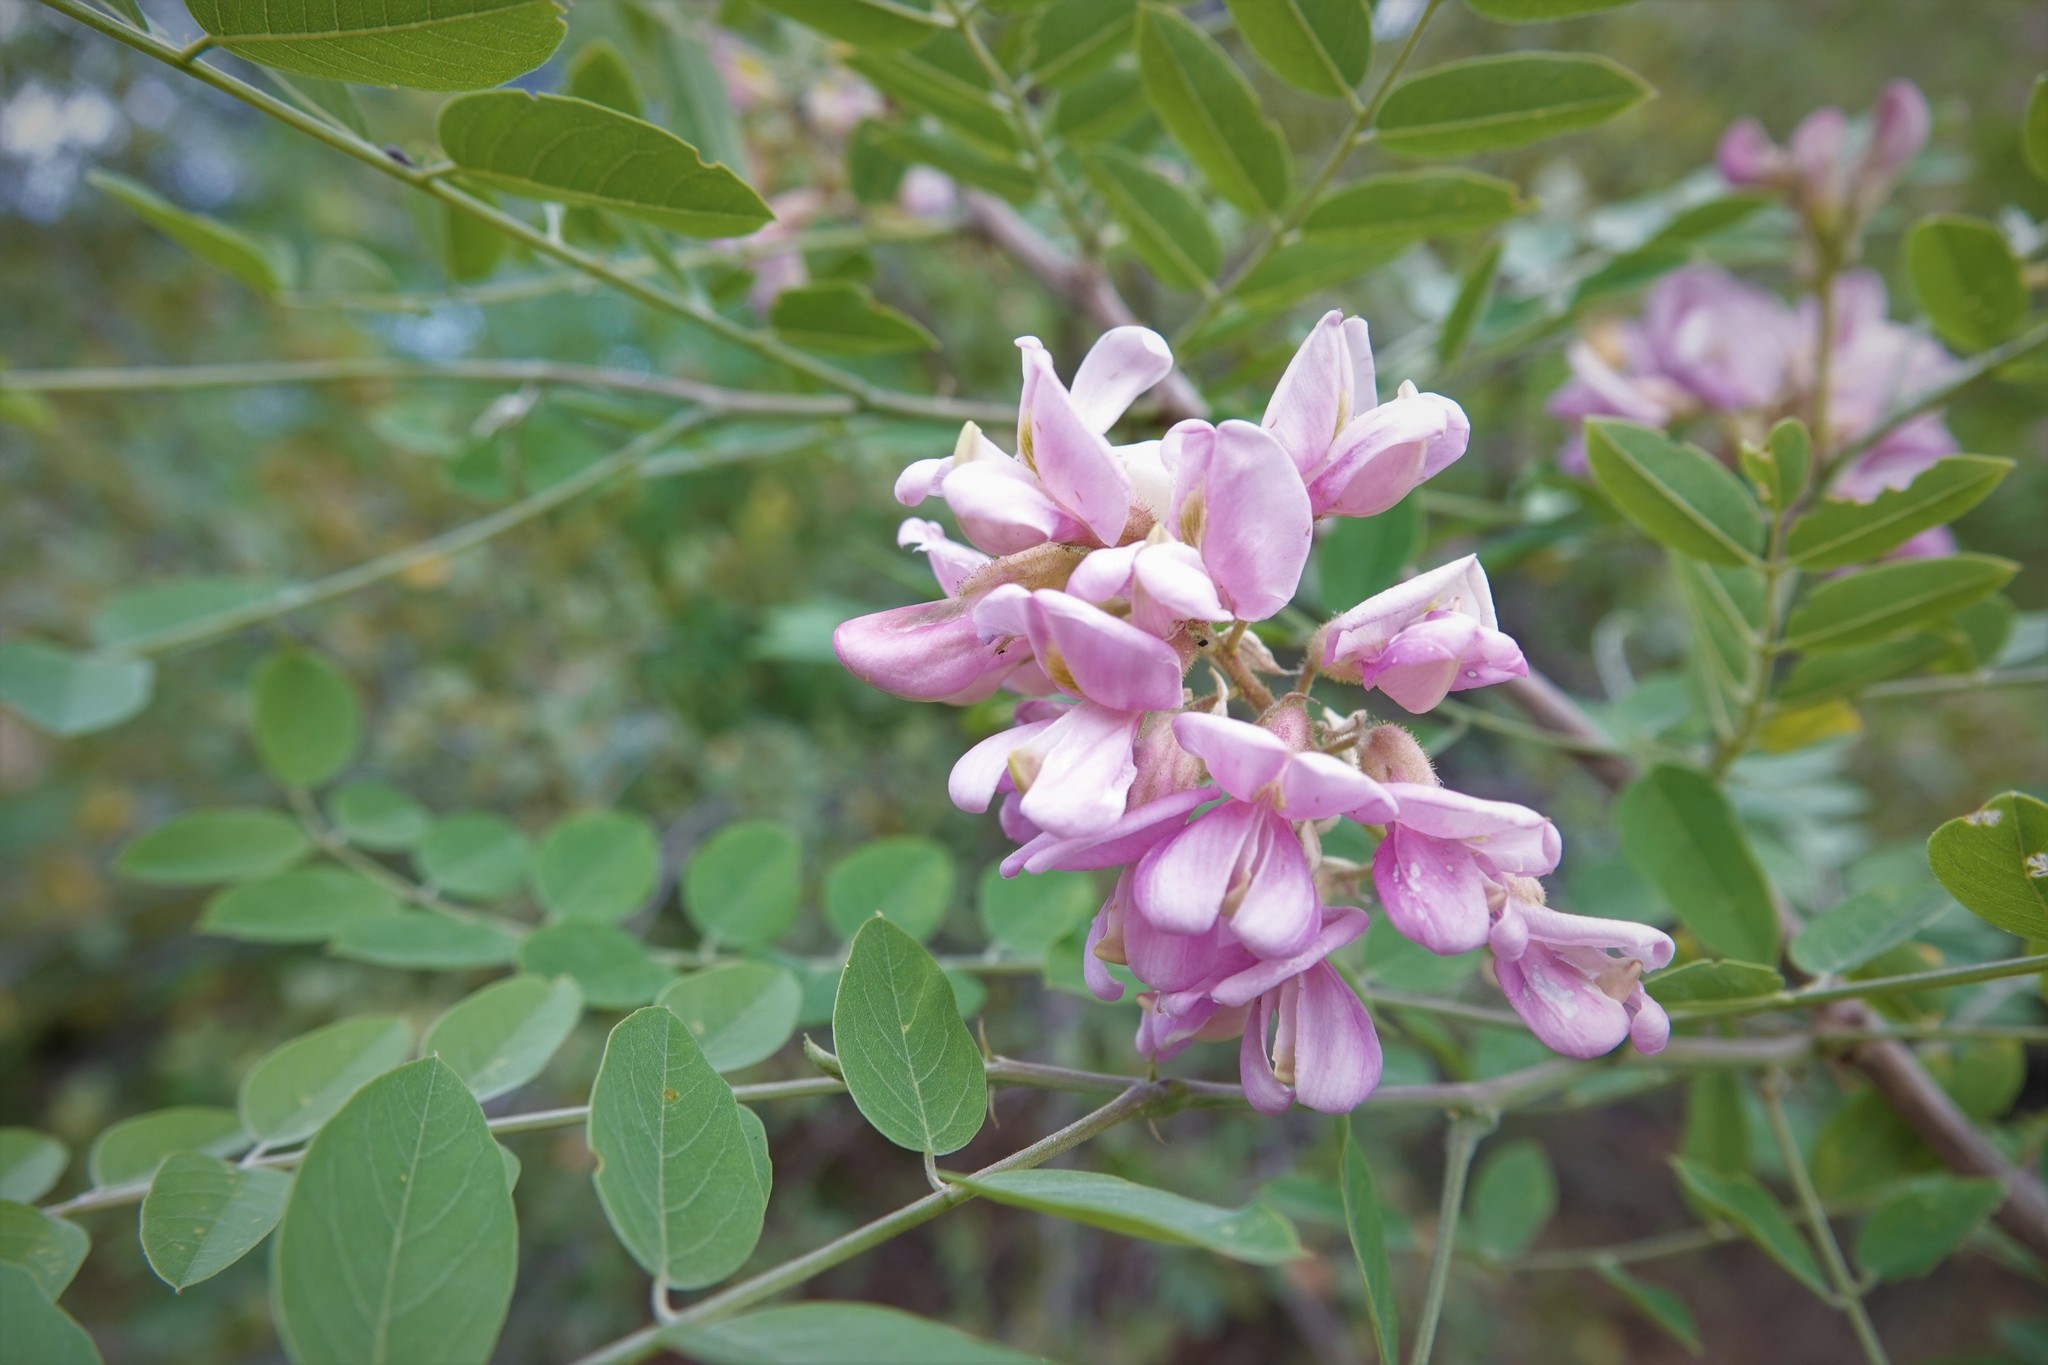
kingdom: Plantae
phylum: Tracheophyta
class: Magnoliopsida
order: Fabales
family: Fabaceae
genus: Robinia
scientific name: Robinia neomexicana
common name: New mexico locust
